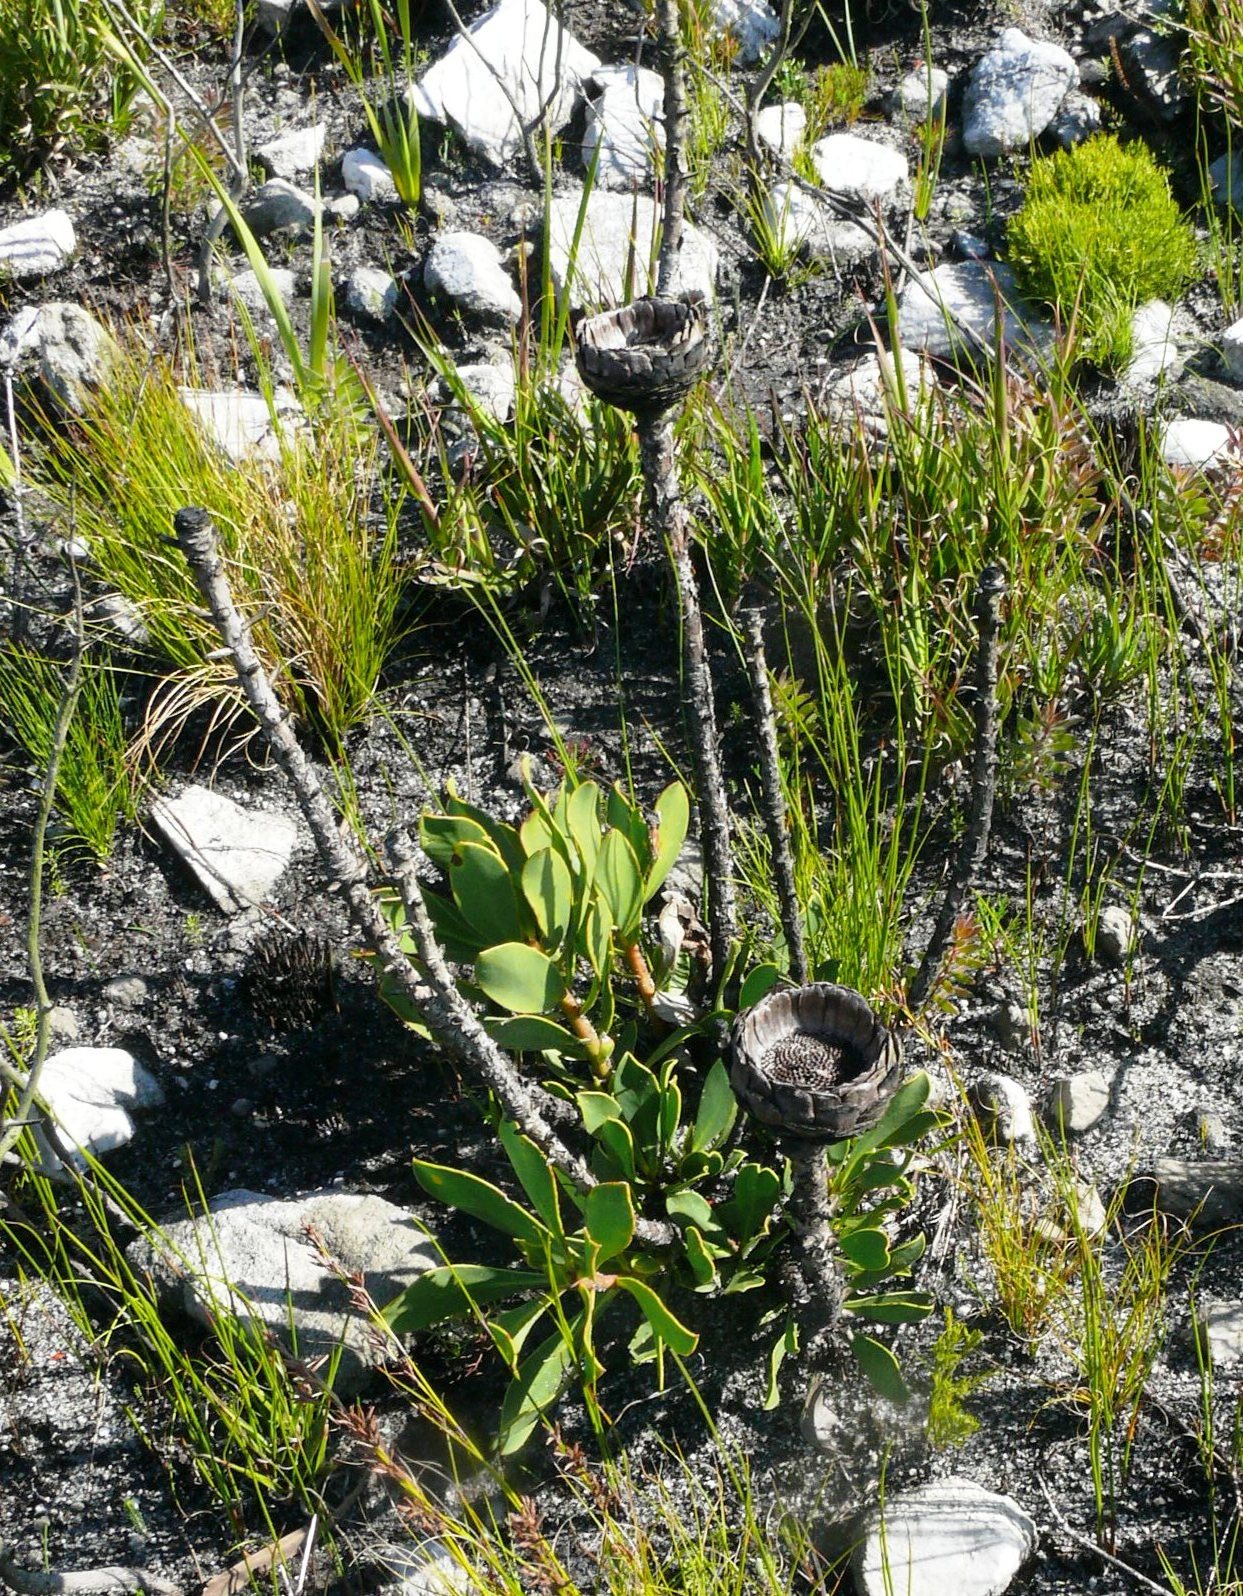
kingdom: Plantae
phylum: Tracheophyta
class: Magnoliopsida
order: Proteales
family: Proteaceae
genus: Protea
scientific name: Protea speciosa
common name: Brown-beard sugarbush
